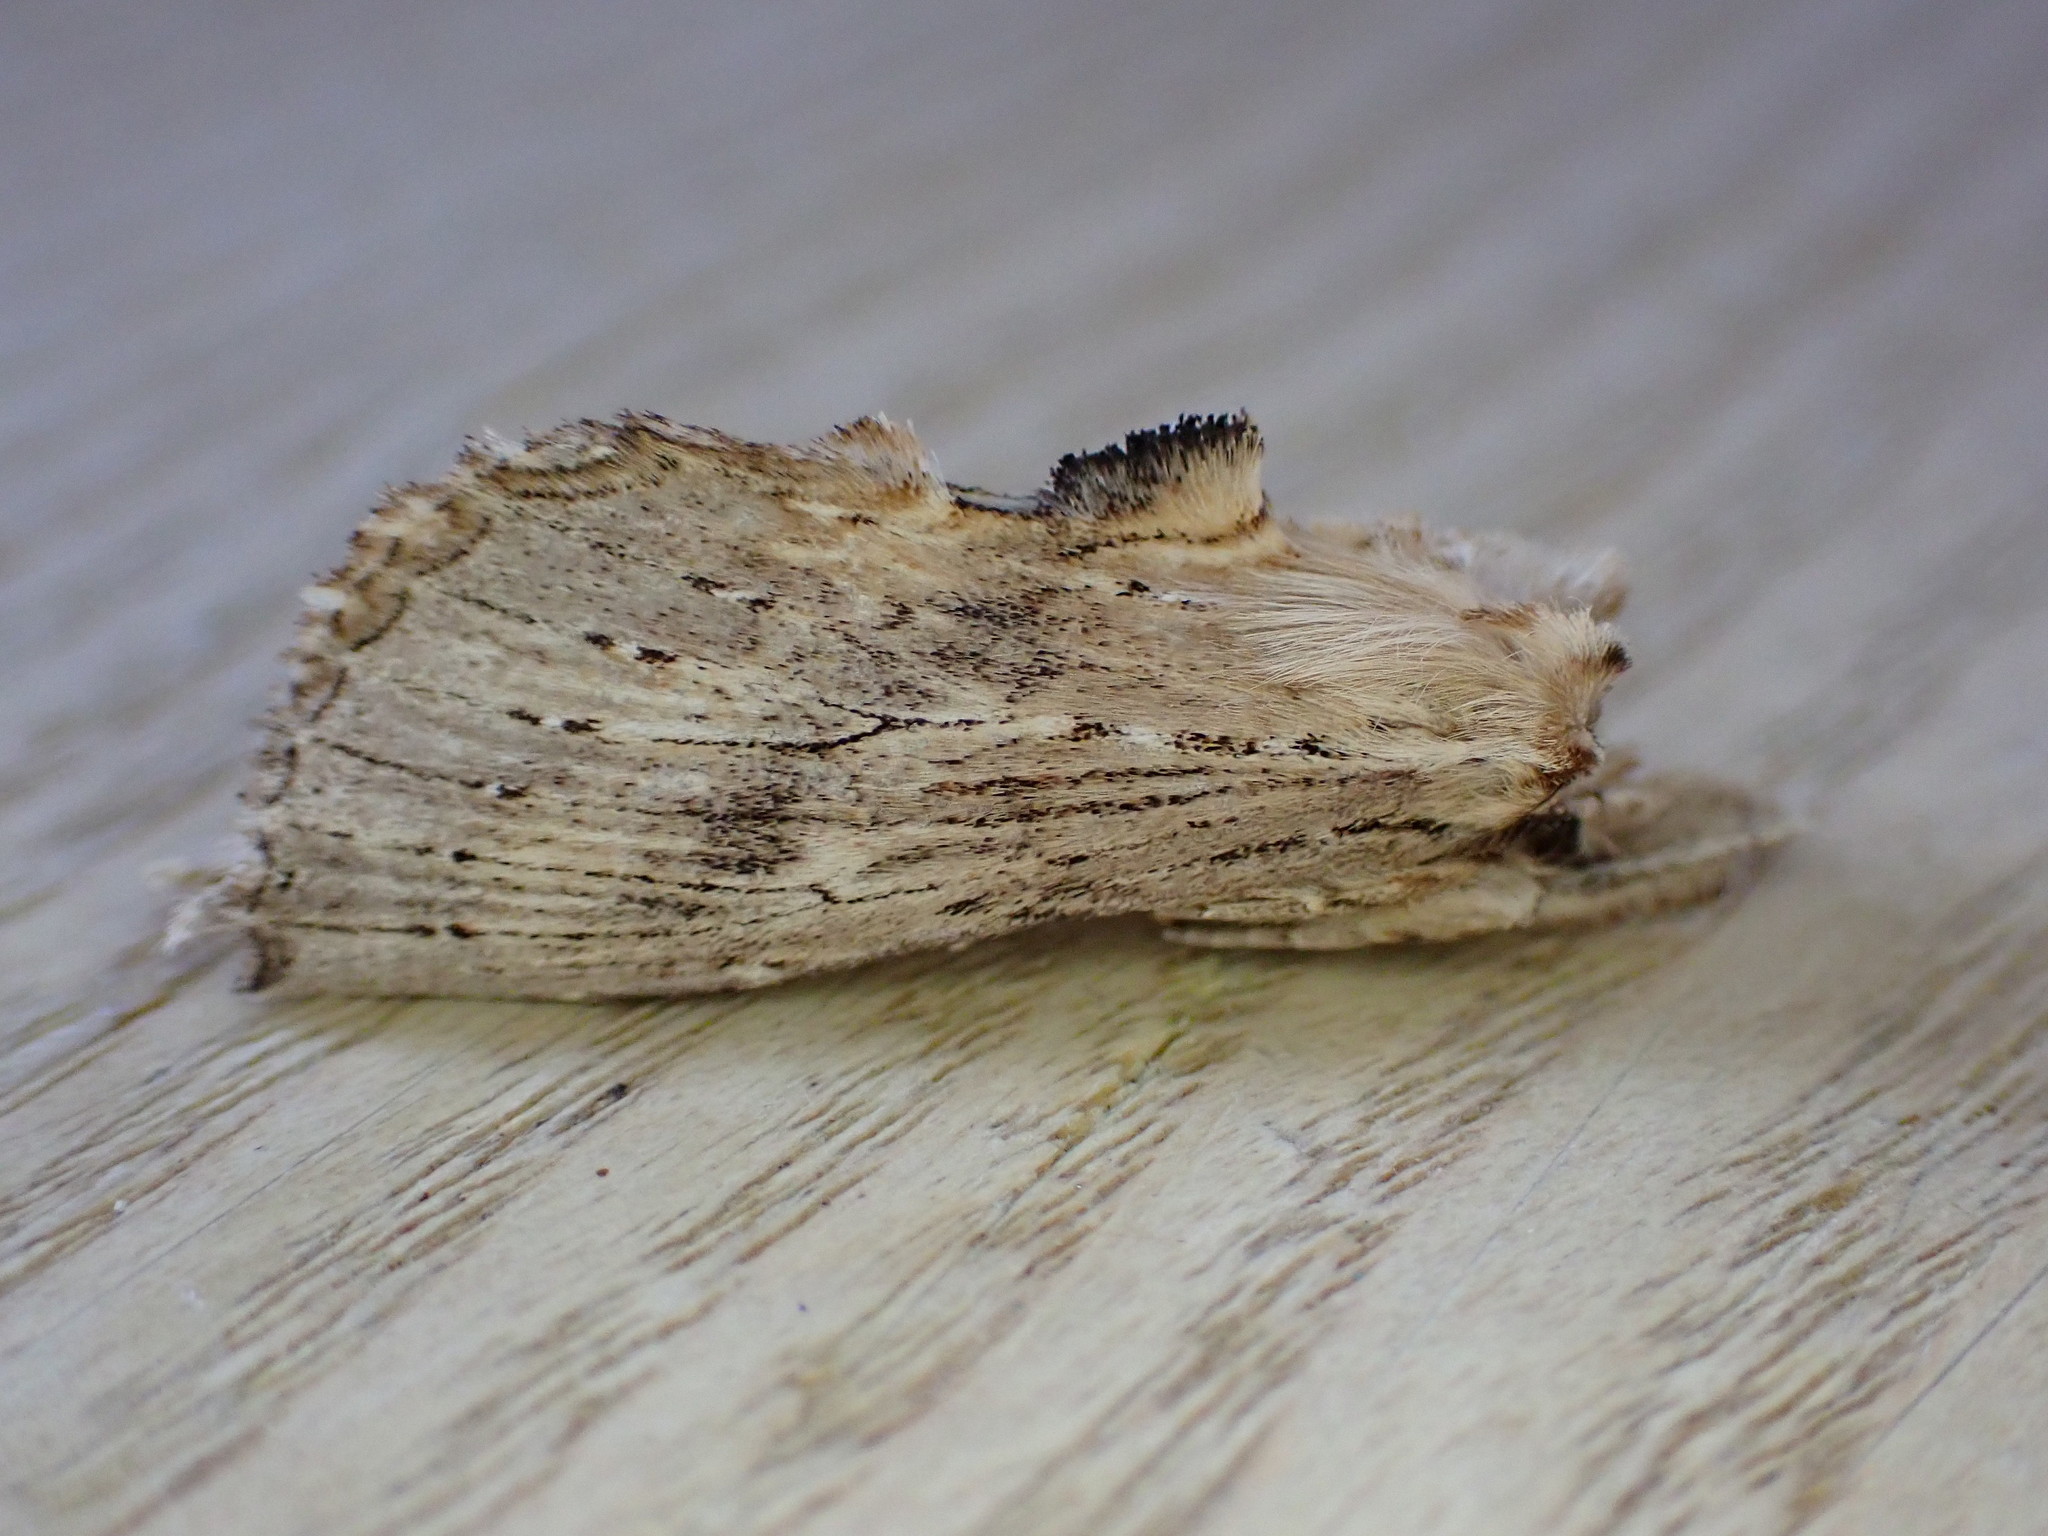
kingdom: Animalia
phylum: Arthropoda
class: Insecta
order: Lepidoptera
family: Notodontidae
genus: Pterostoma
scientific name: Pterostoma palpina
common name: Pale prominent
